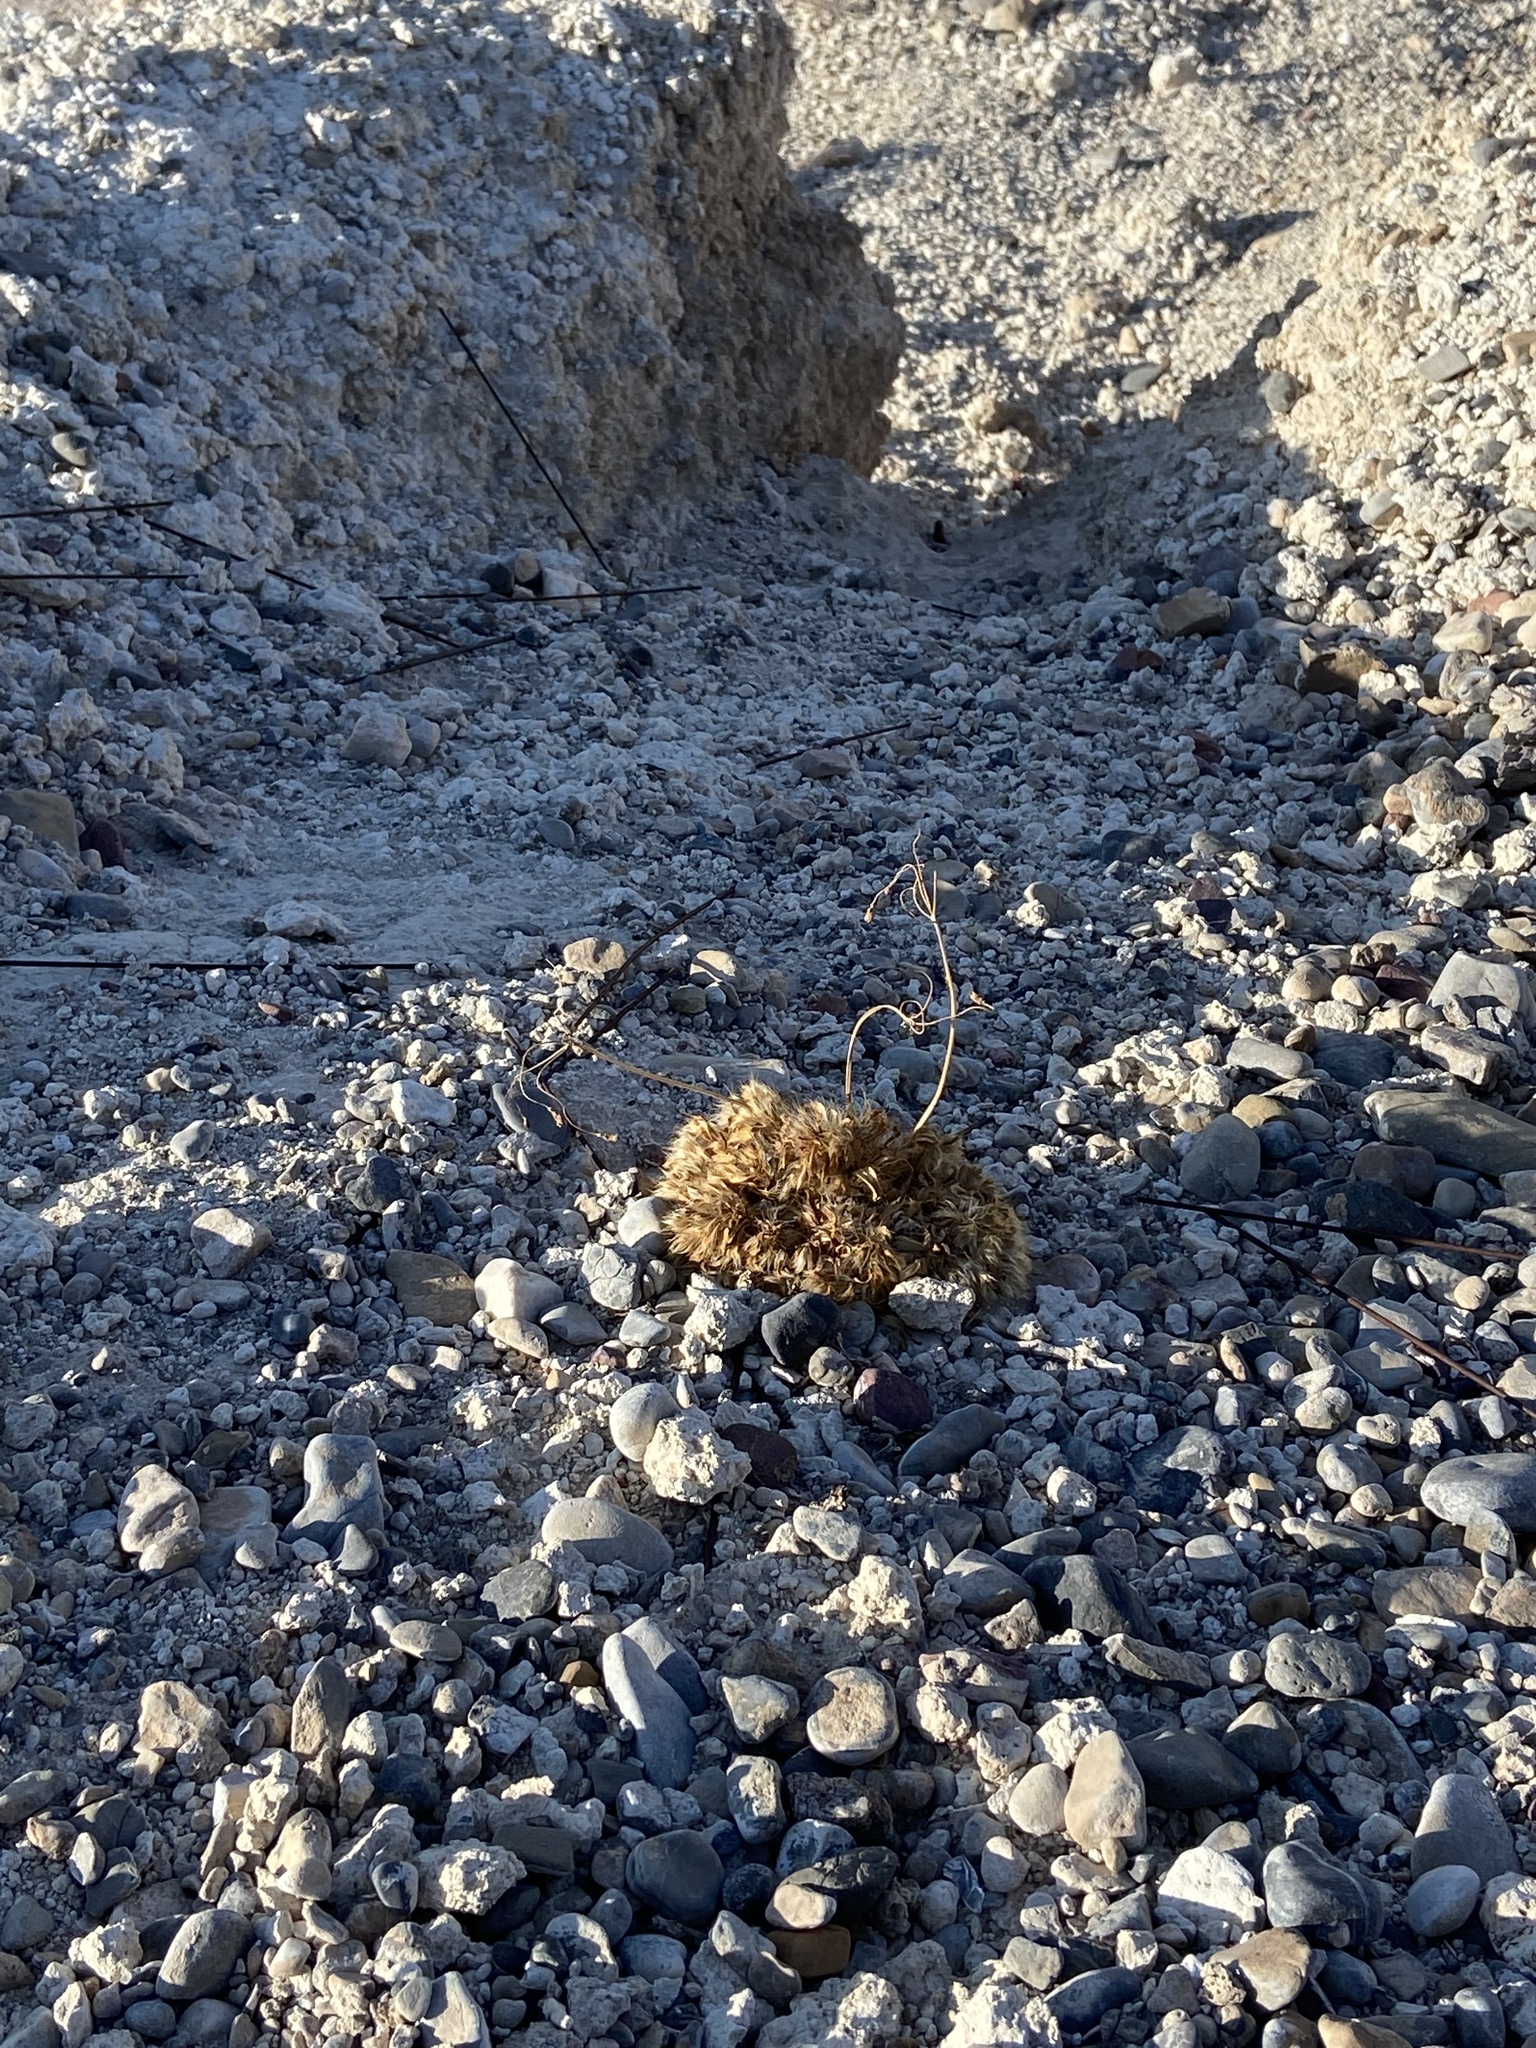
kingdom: Plantae
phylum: Tracheophyta
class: Magnoliopsida
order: Ranunculales
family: Papaveraceae
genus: Arctomecon
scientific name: Arctomecon californicum
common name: Golden bearclaw-poppy
